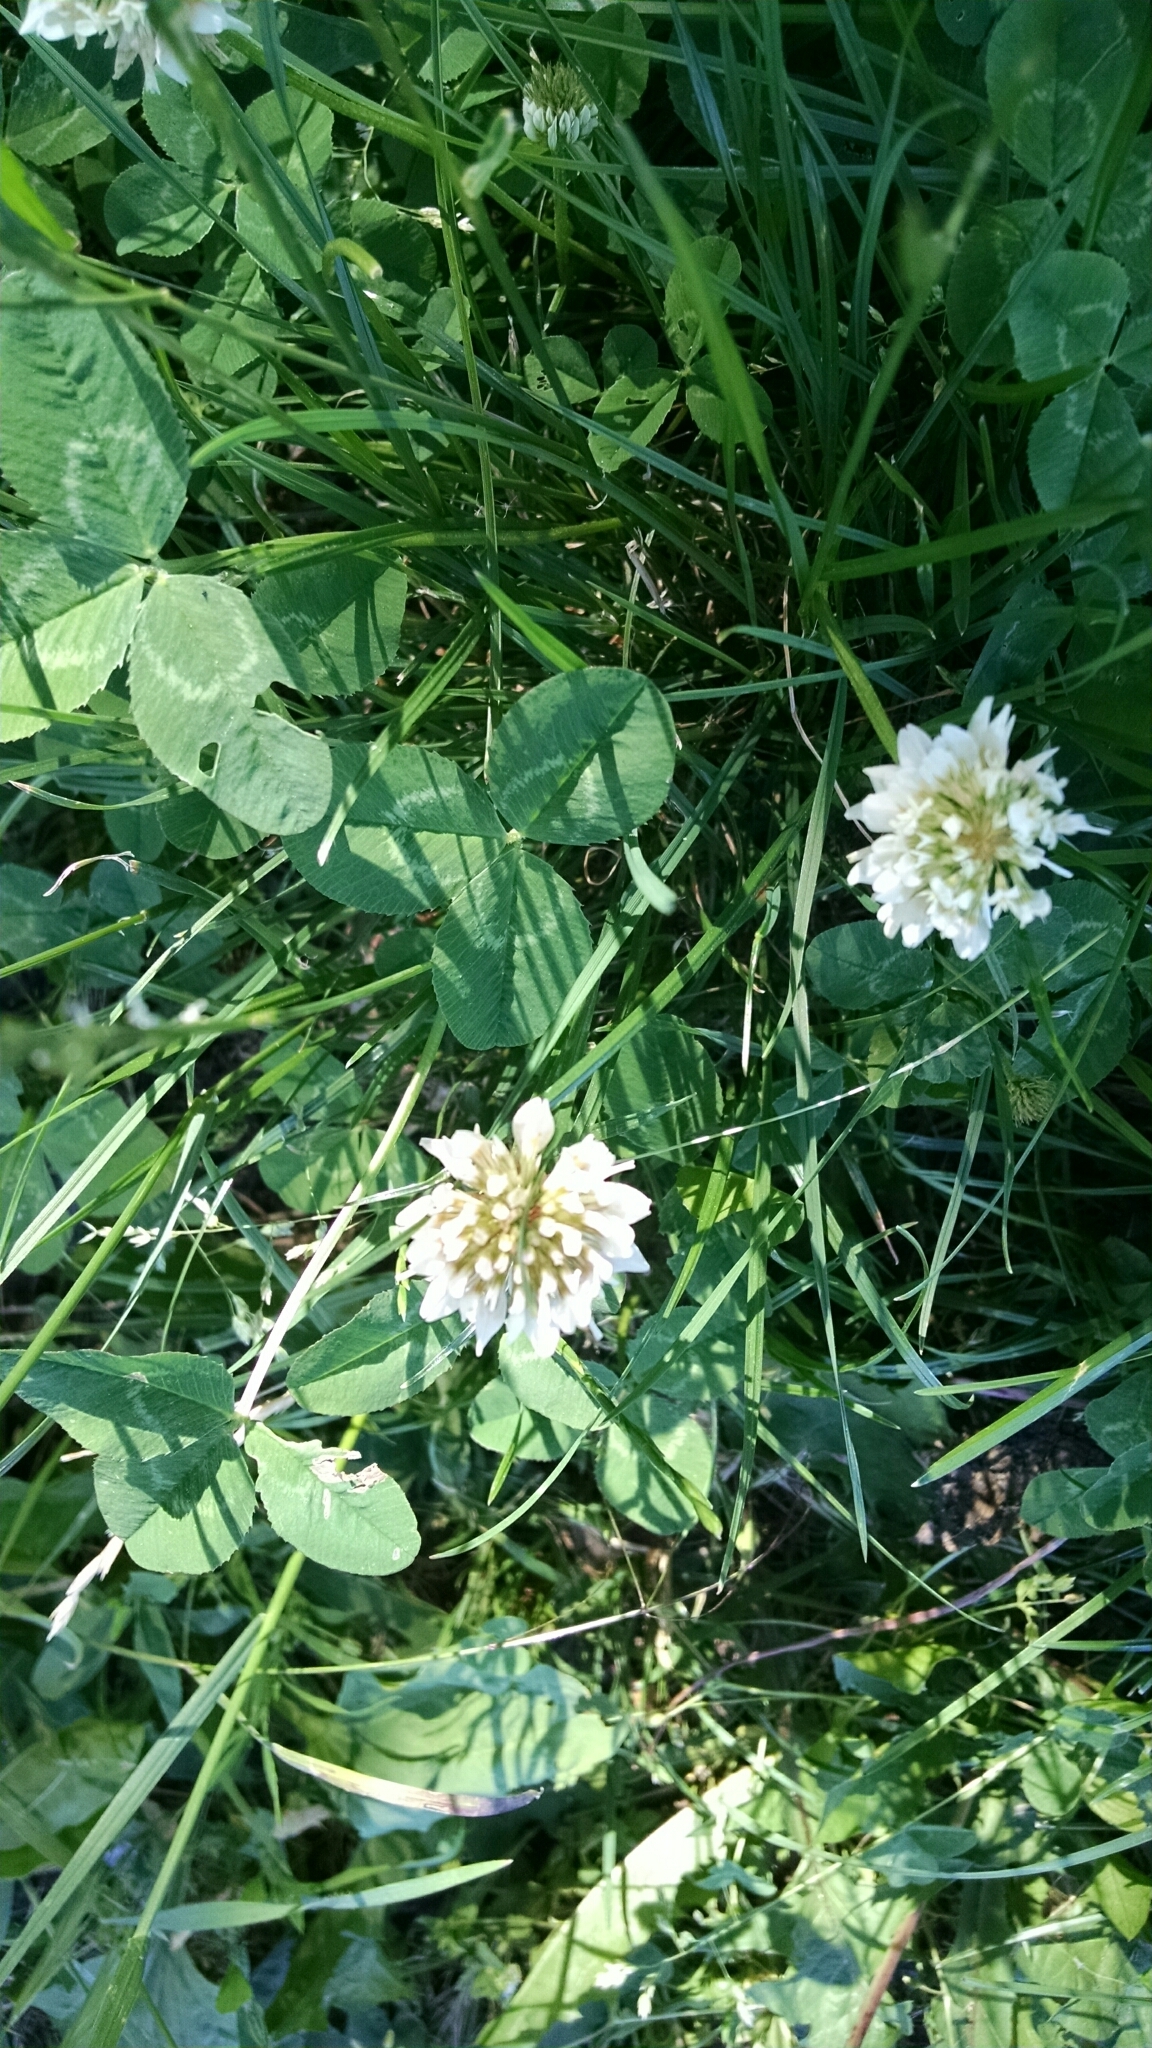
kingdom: Plantae
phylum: Tracheophyta
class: Magnoliopsida
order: Fabales
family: Fabaceae
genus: Trifolium
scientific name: Trifolium repens
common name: White clover
